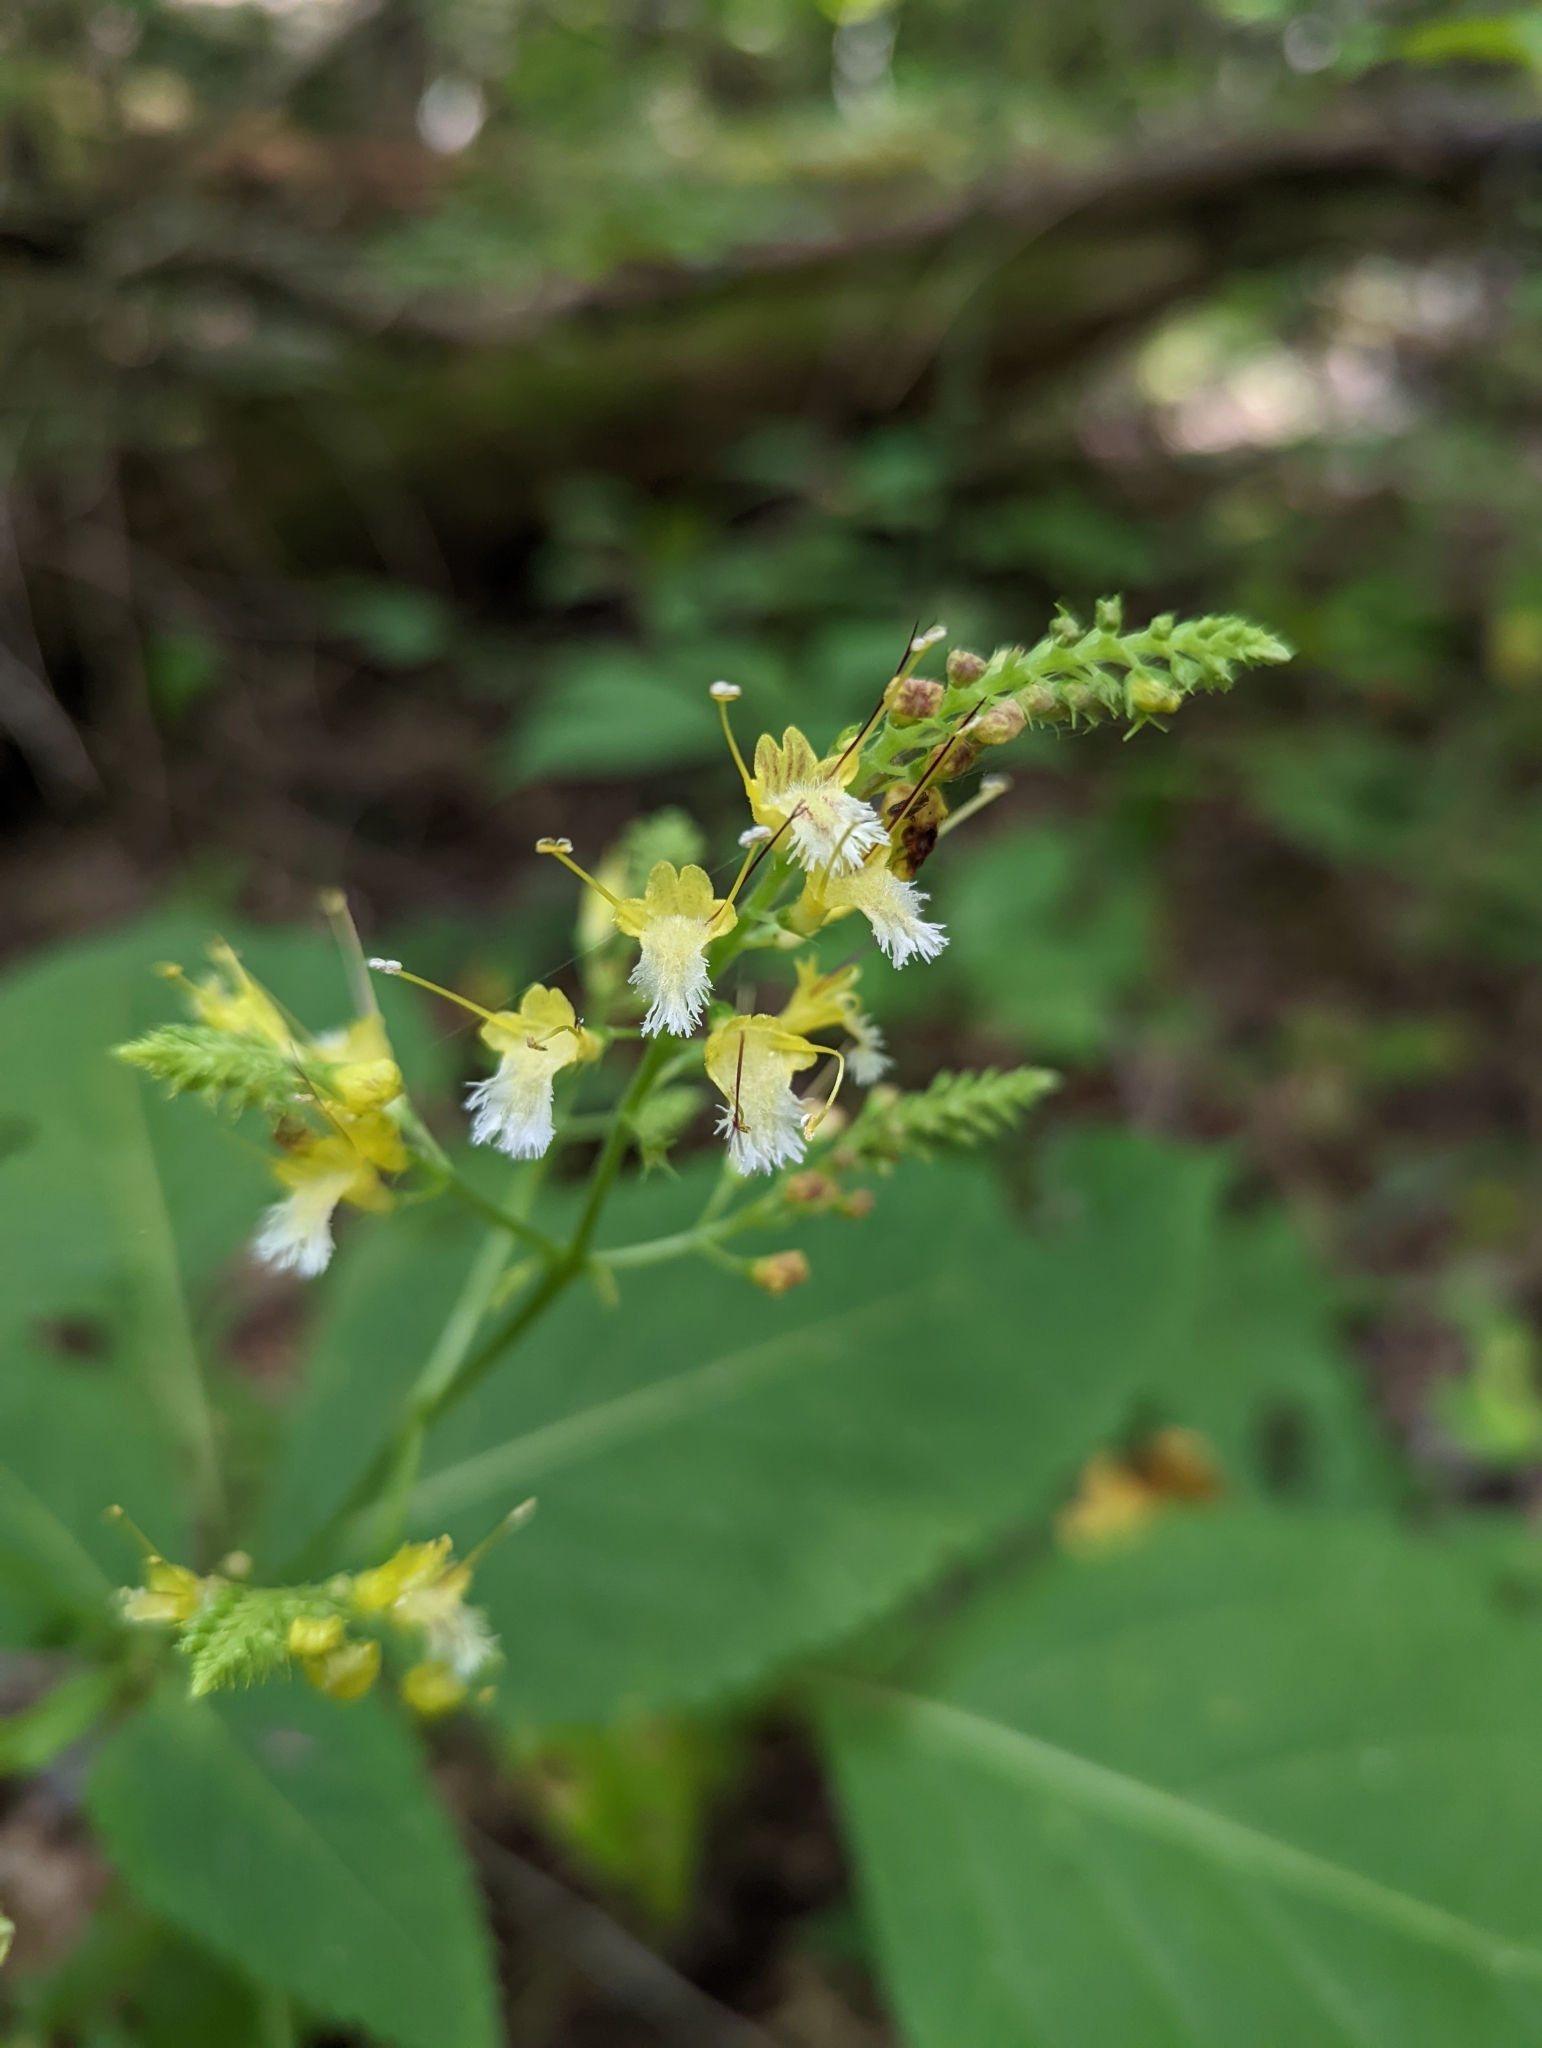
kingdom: Plantae
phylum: Tracheophyta
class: Magnoliopsida
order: Lamiales
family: Lamiaceae
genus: Collinsonia
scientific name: Collinsonia canadensis
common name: Northern horsebalm
